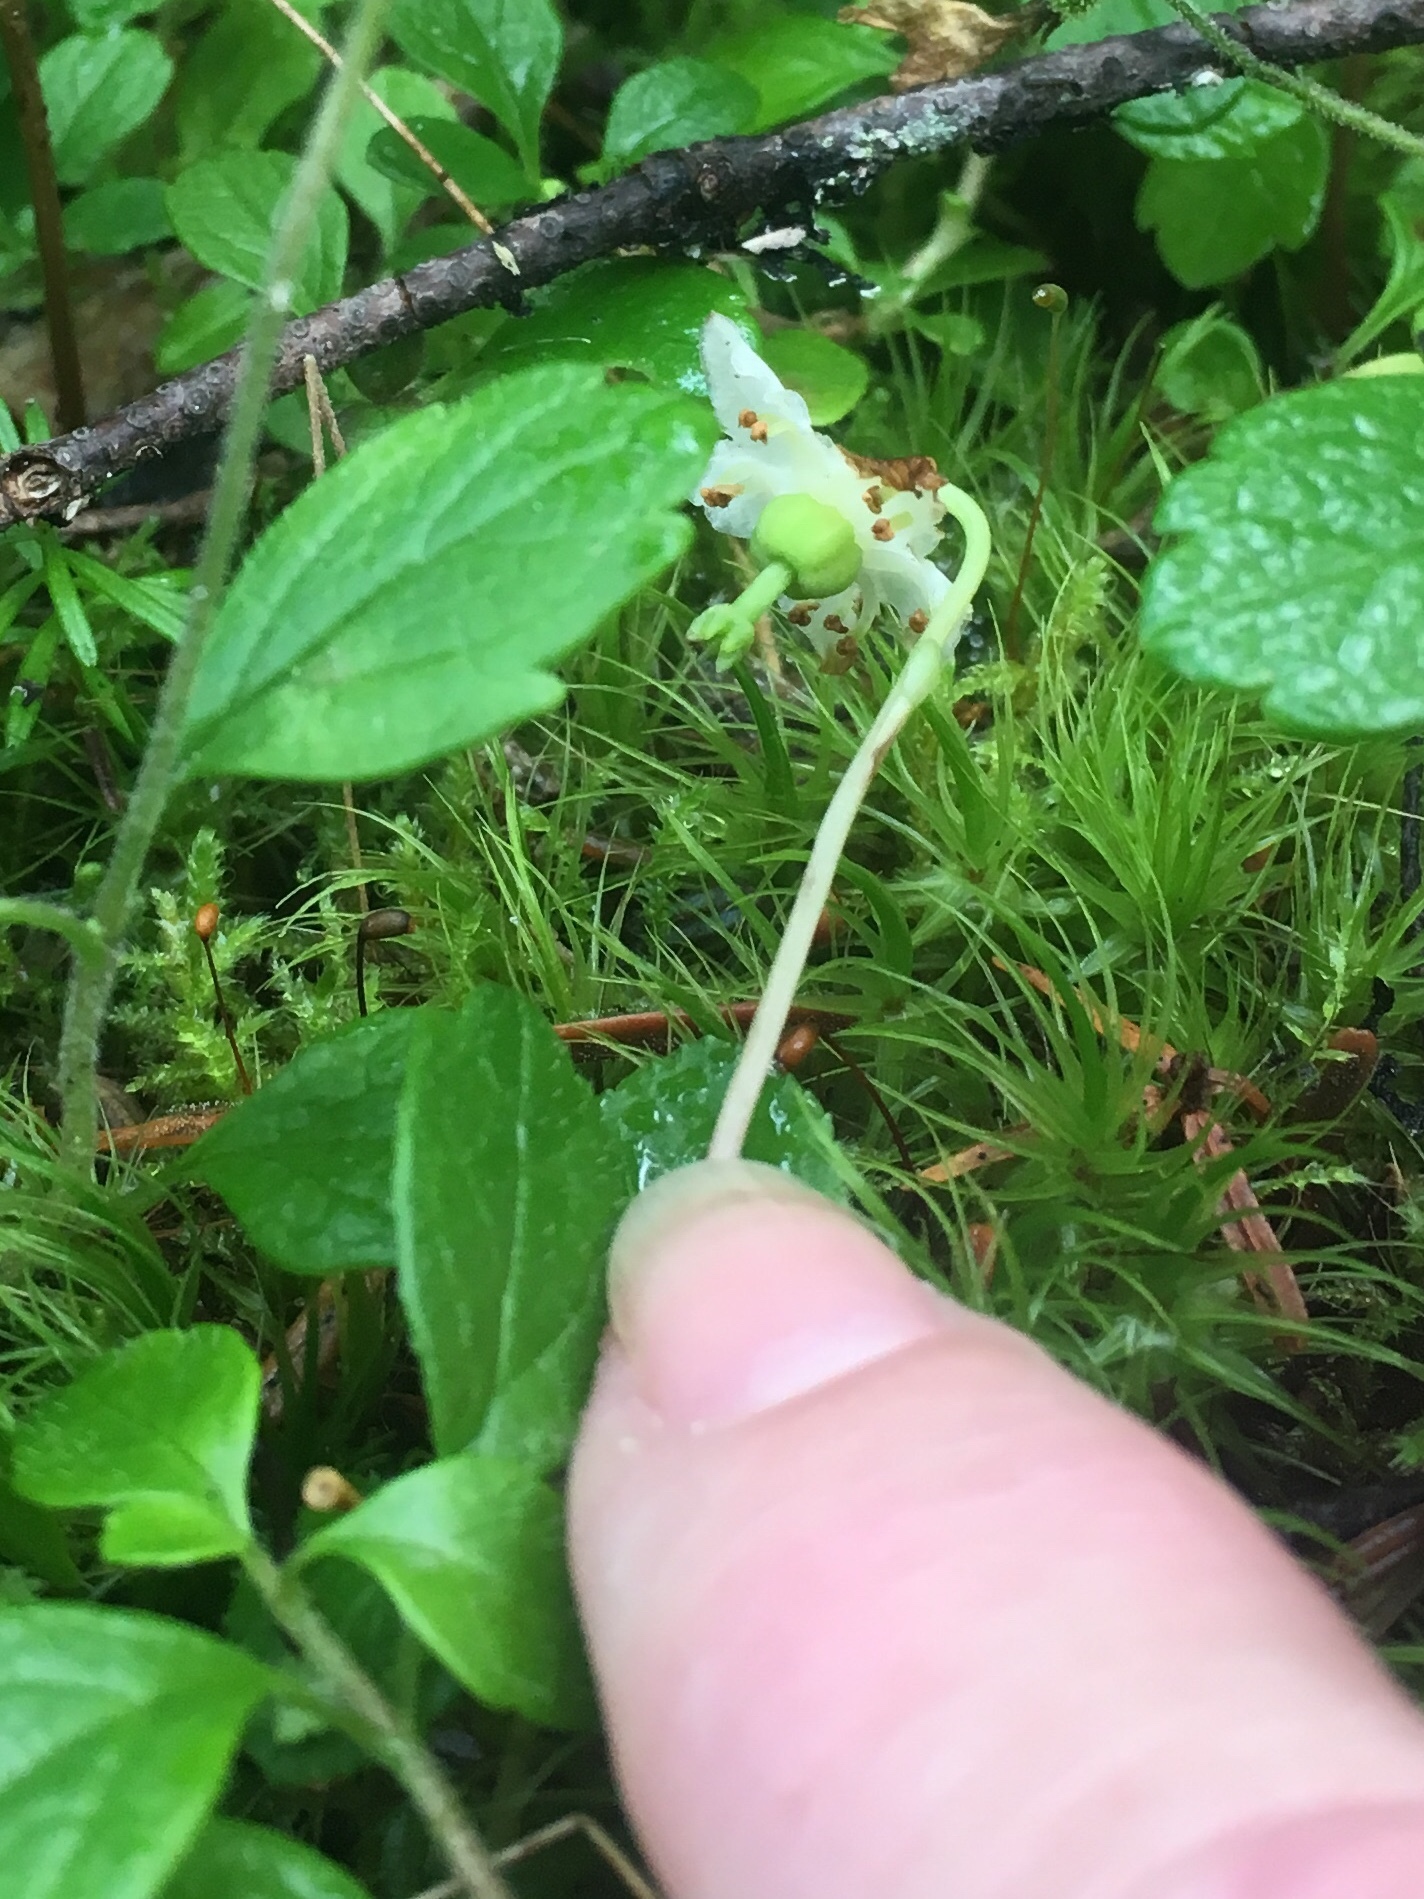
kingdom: Plantae
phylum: Tracheophyta
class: Magnoliopsida
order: Ericales
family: Ericaceae
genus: Moneses
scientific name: Moneses uniflora
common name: One-flowered wintergreen
